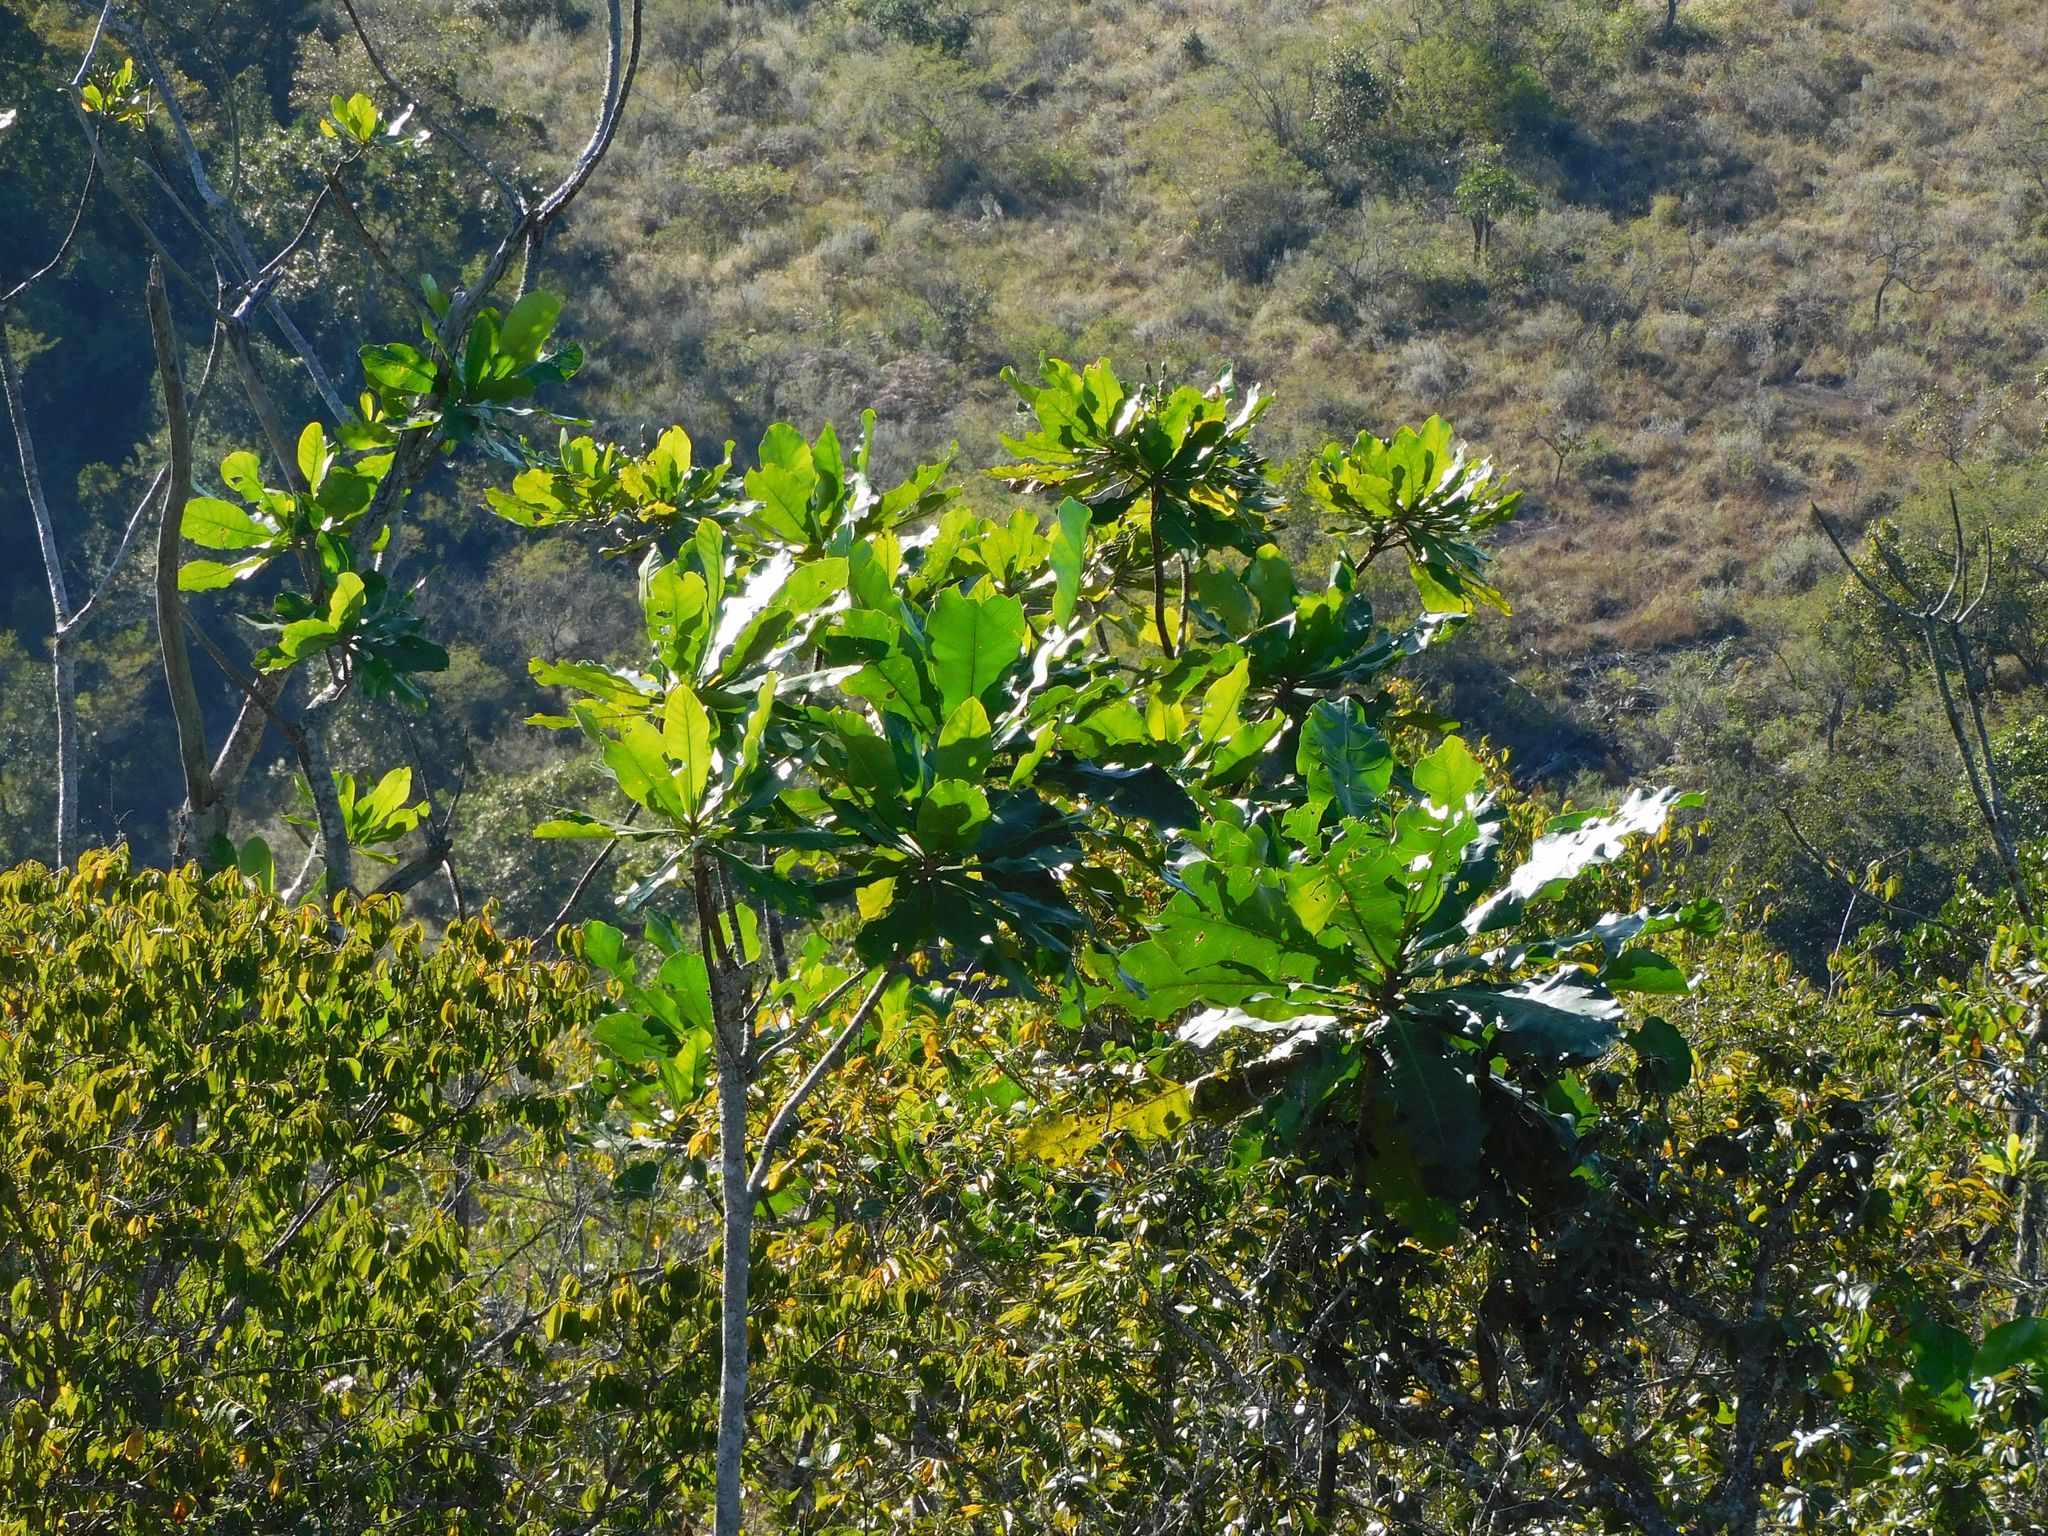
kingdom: Plantae
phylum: Tracheophyta
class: Magnoliopsida
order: Gentianales
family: Gentianaceae
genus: Anthocleista
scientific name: Anthocleista grandiflora
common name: Forest big-leaf
